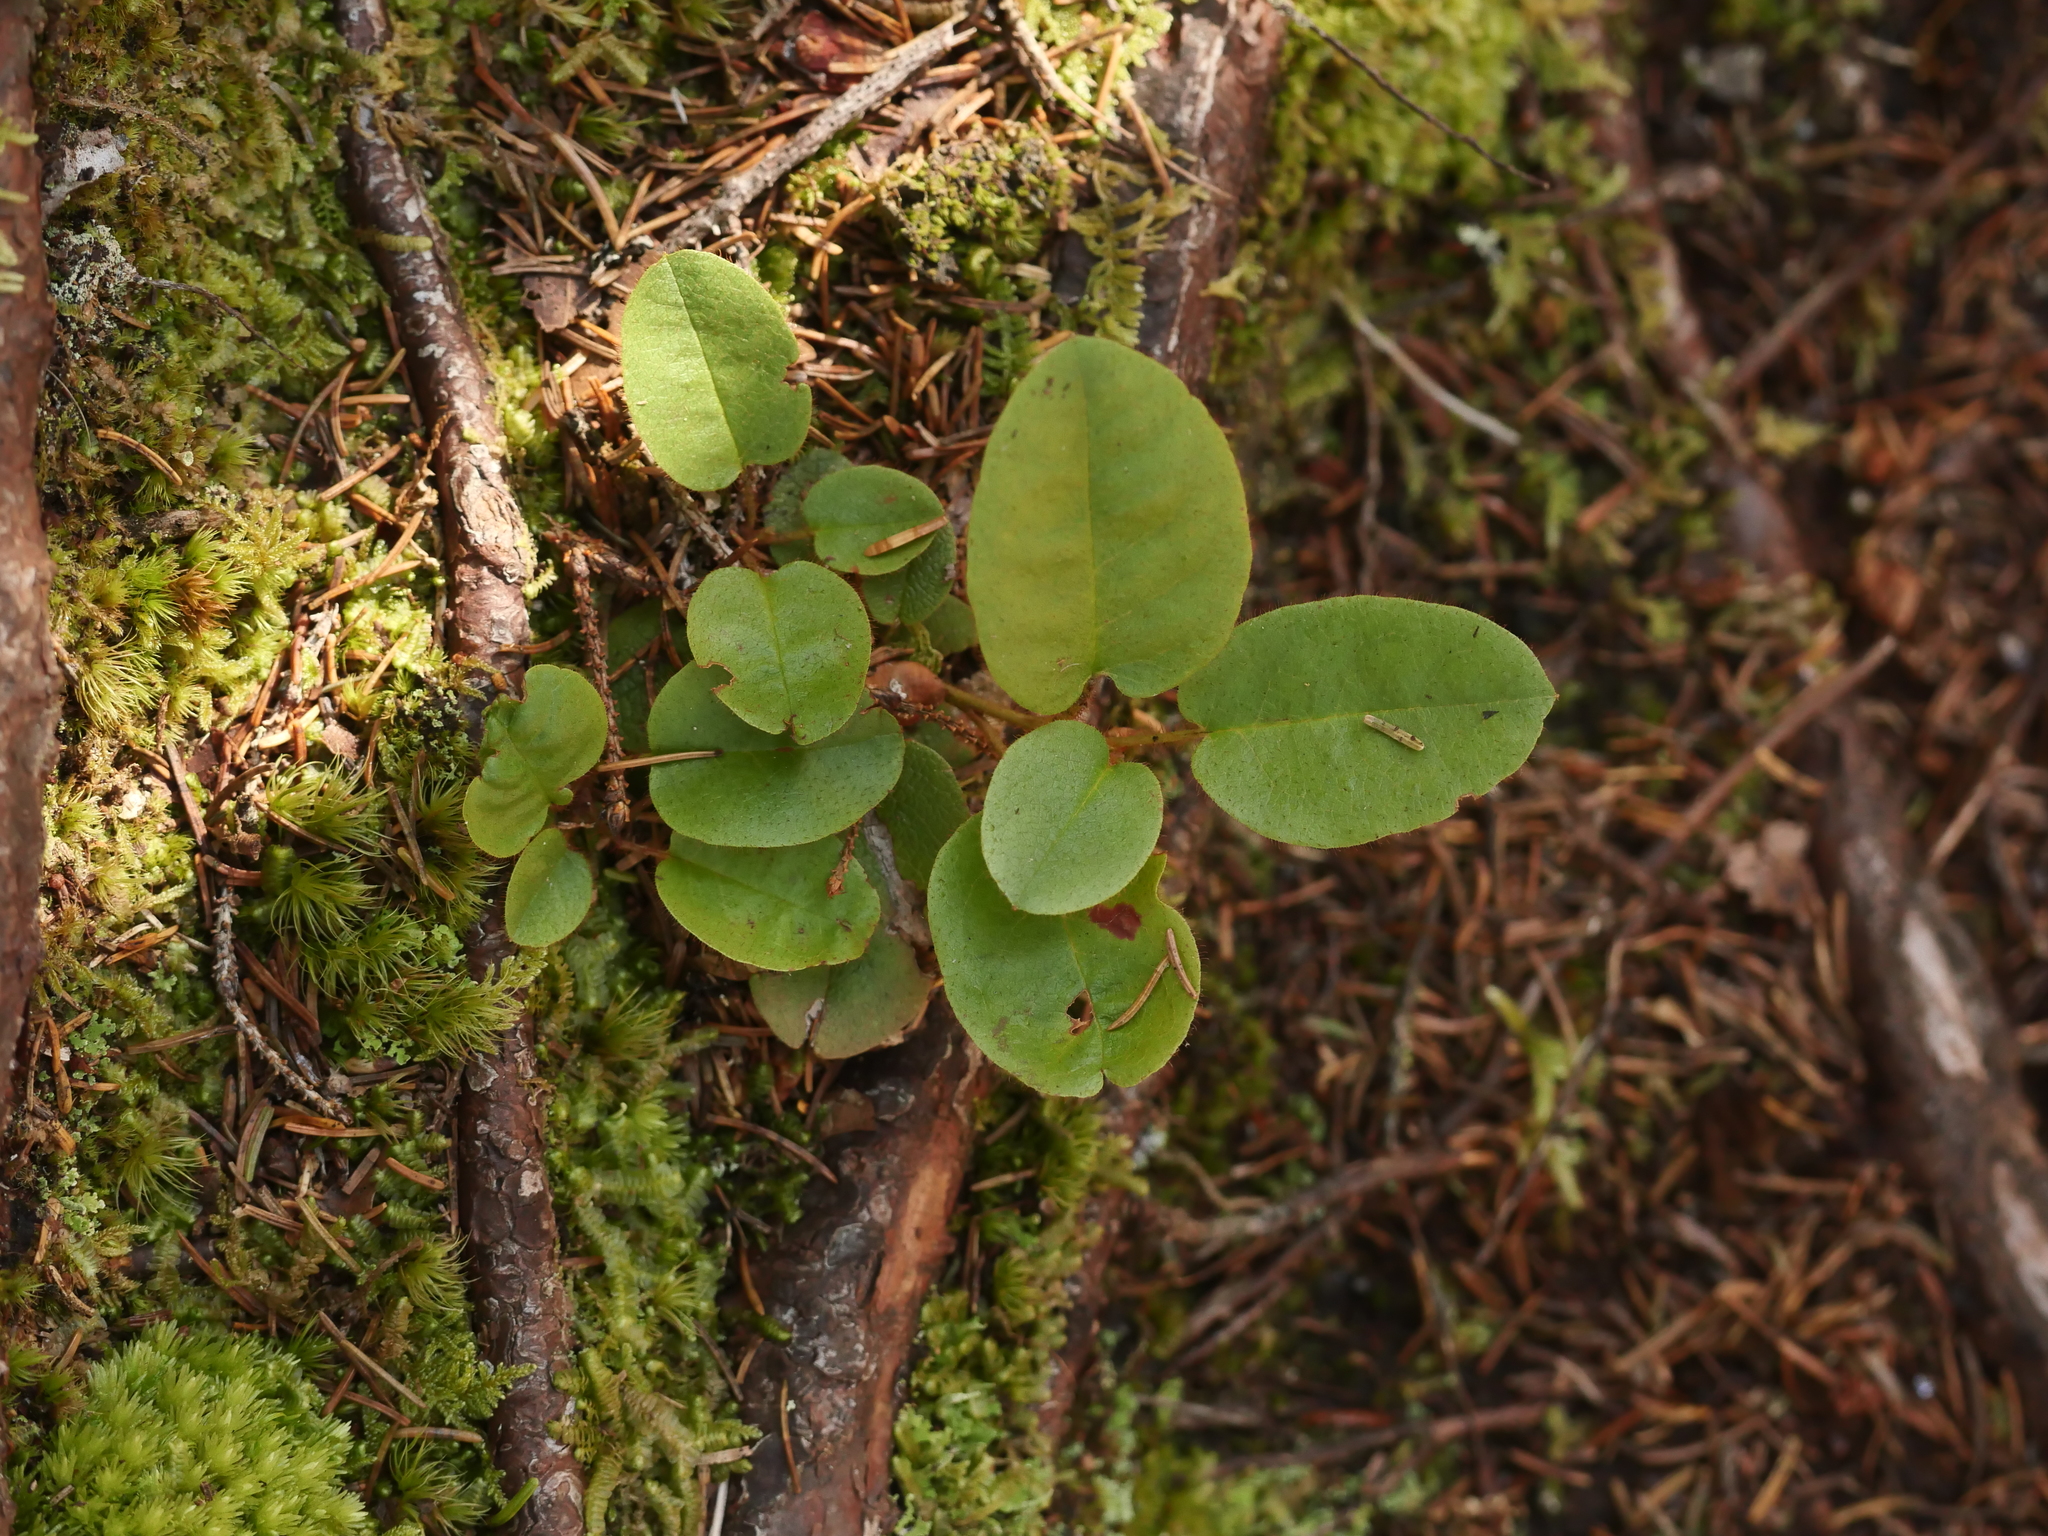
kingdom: Plantae
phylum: Tracheophyta
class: Magnoliopsida
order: Ericales
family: Ericaceae
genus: Epigaea
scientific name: Epigaea repens
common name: Gravelroot
